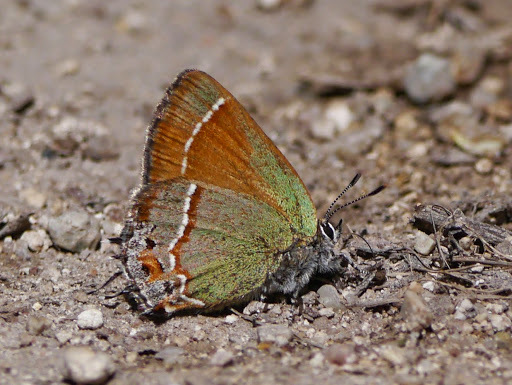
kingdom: Animalia
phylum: Arthropoda
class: Insecta
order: Lepidoptera
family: Lycaenidae
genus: Mitoura
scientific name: Mitoura siva
